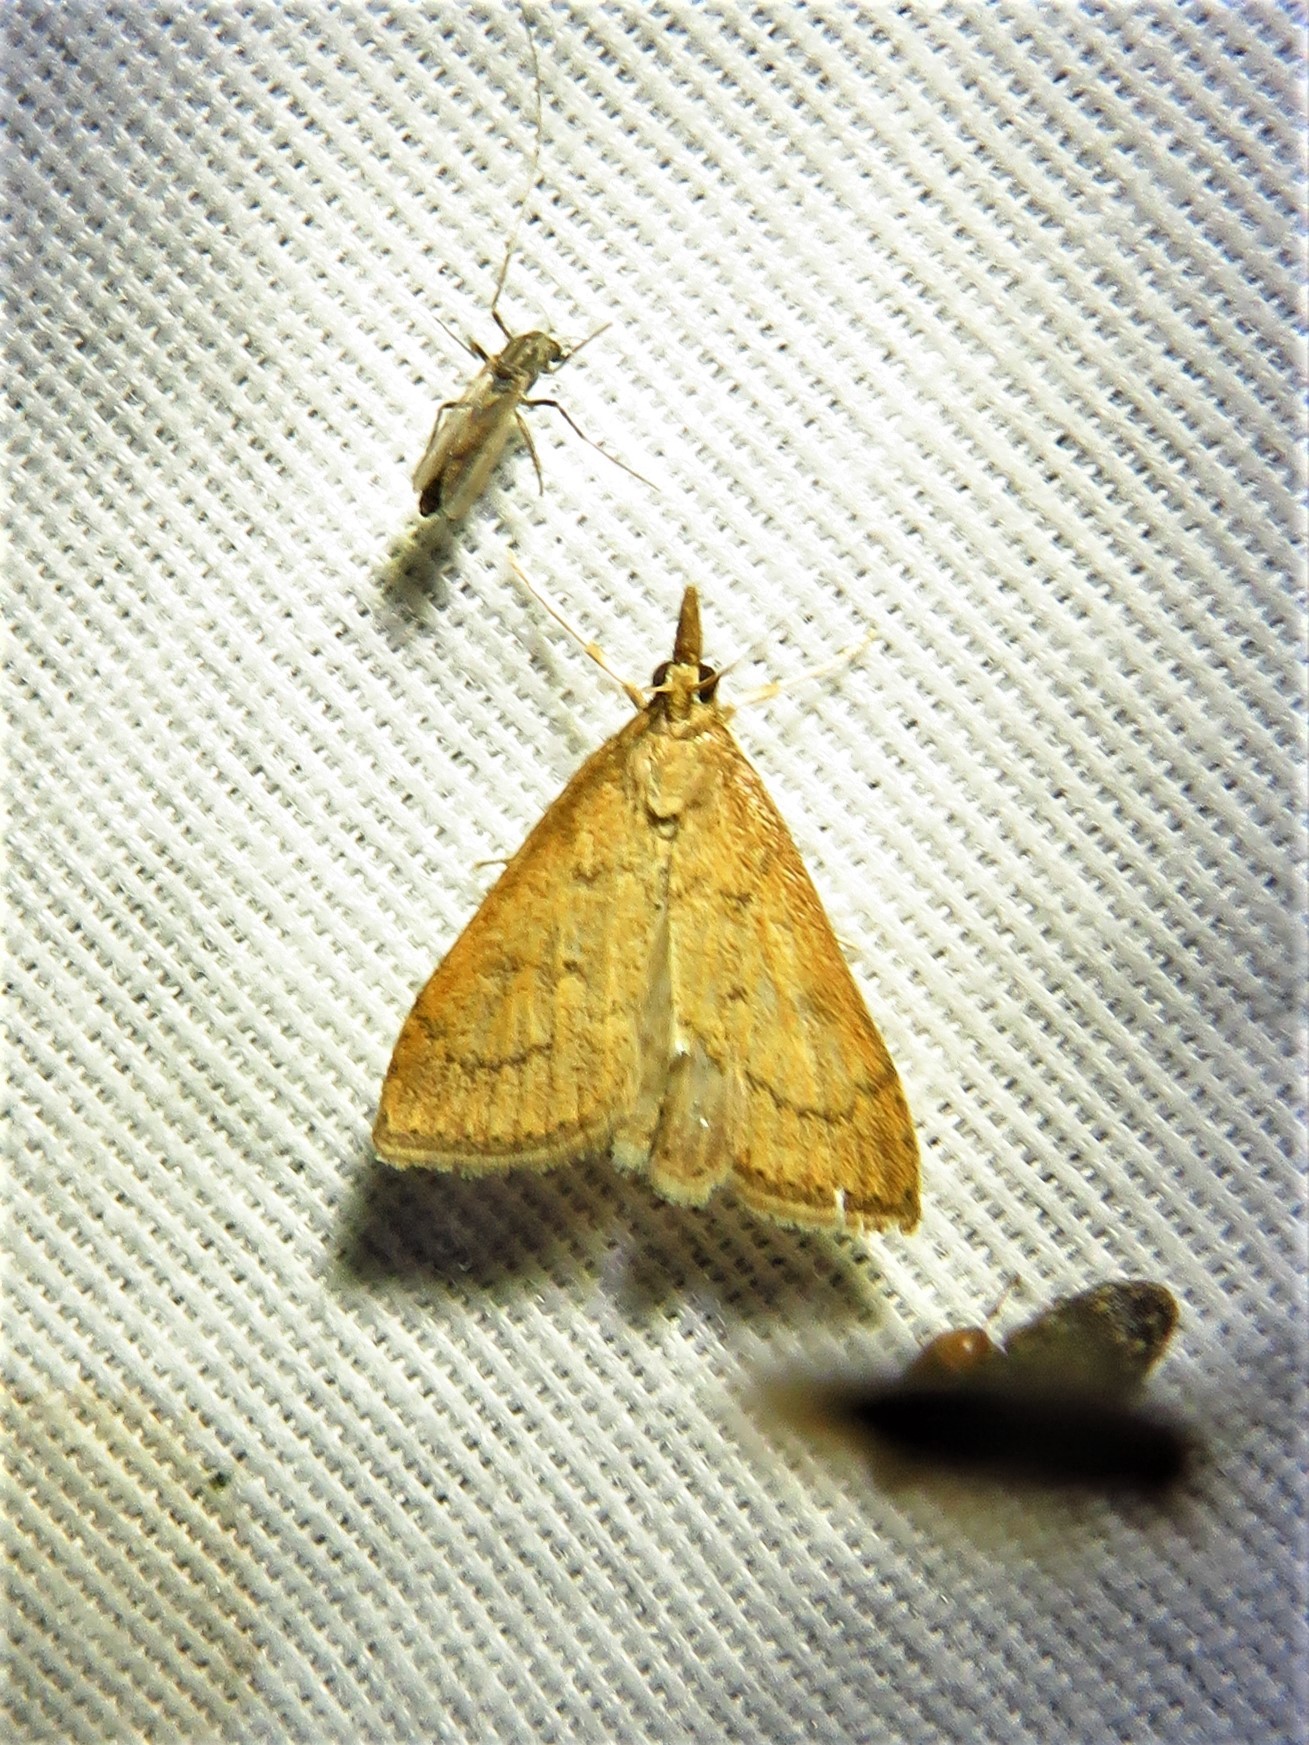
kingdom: Animalia
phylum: Arthropoda
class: Insecta
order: Lepidoptera
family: Crambidae
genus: Udea
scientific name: Udea rubigalis
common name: Celery leaftier moth
